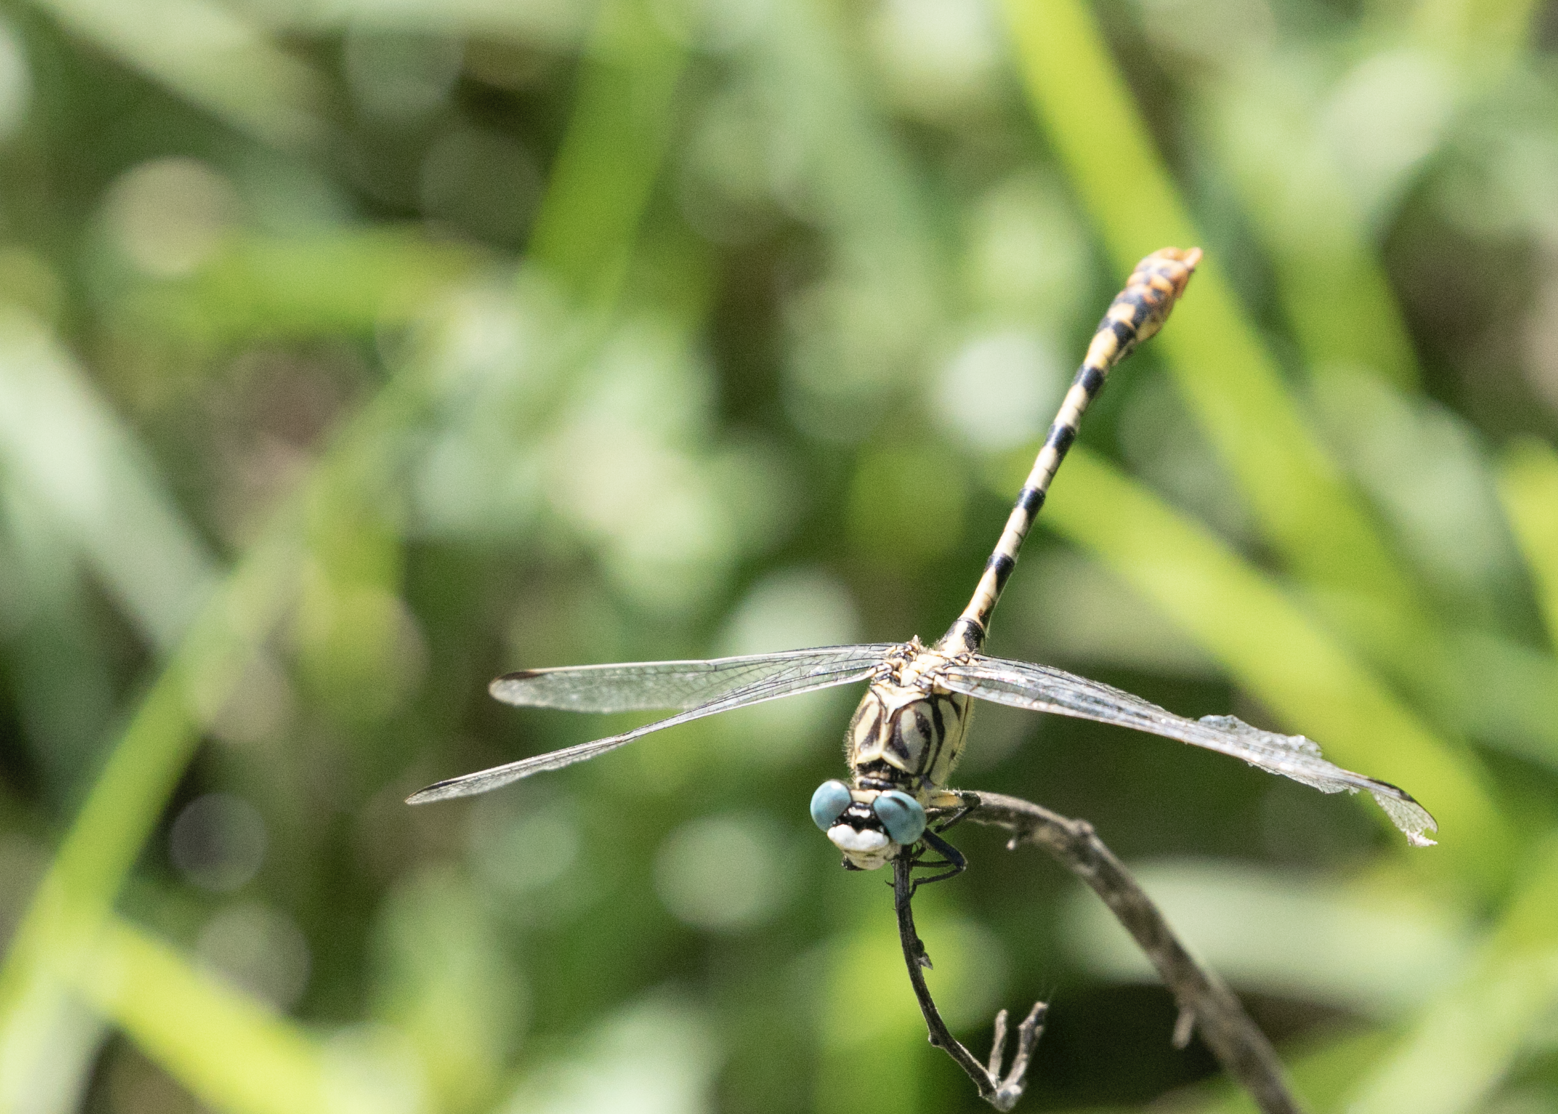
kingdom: Animalia
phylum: Arthropoda
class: Insecta
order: Odonata
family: Gomphidae
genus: Onychogomphus
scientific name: Onychogomphus forcipatus
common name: Small pincertail
